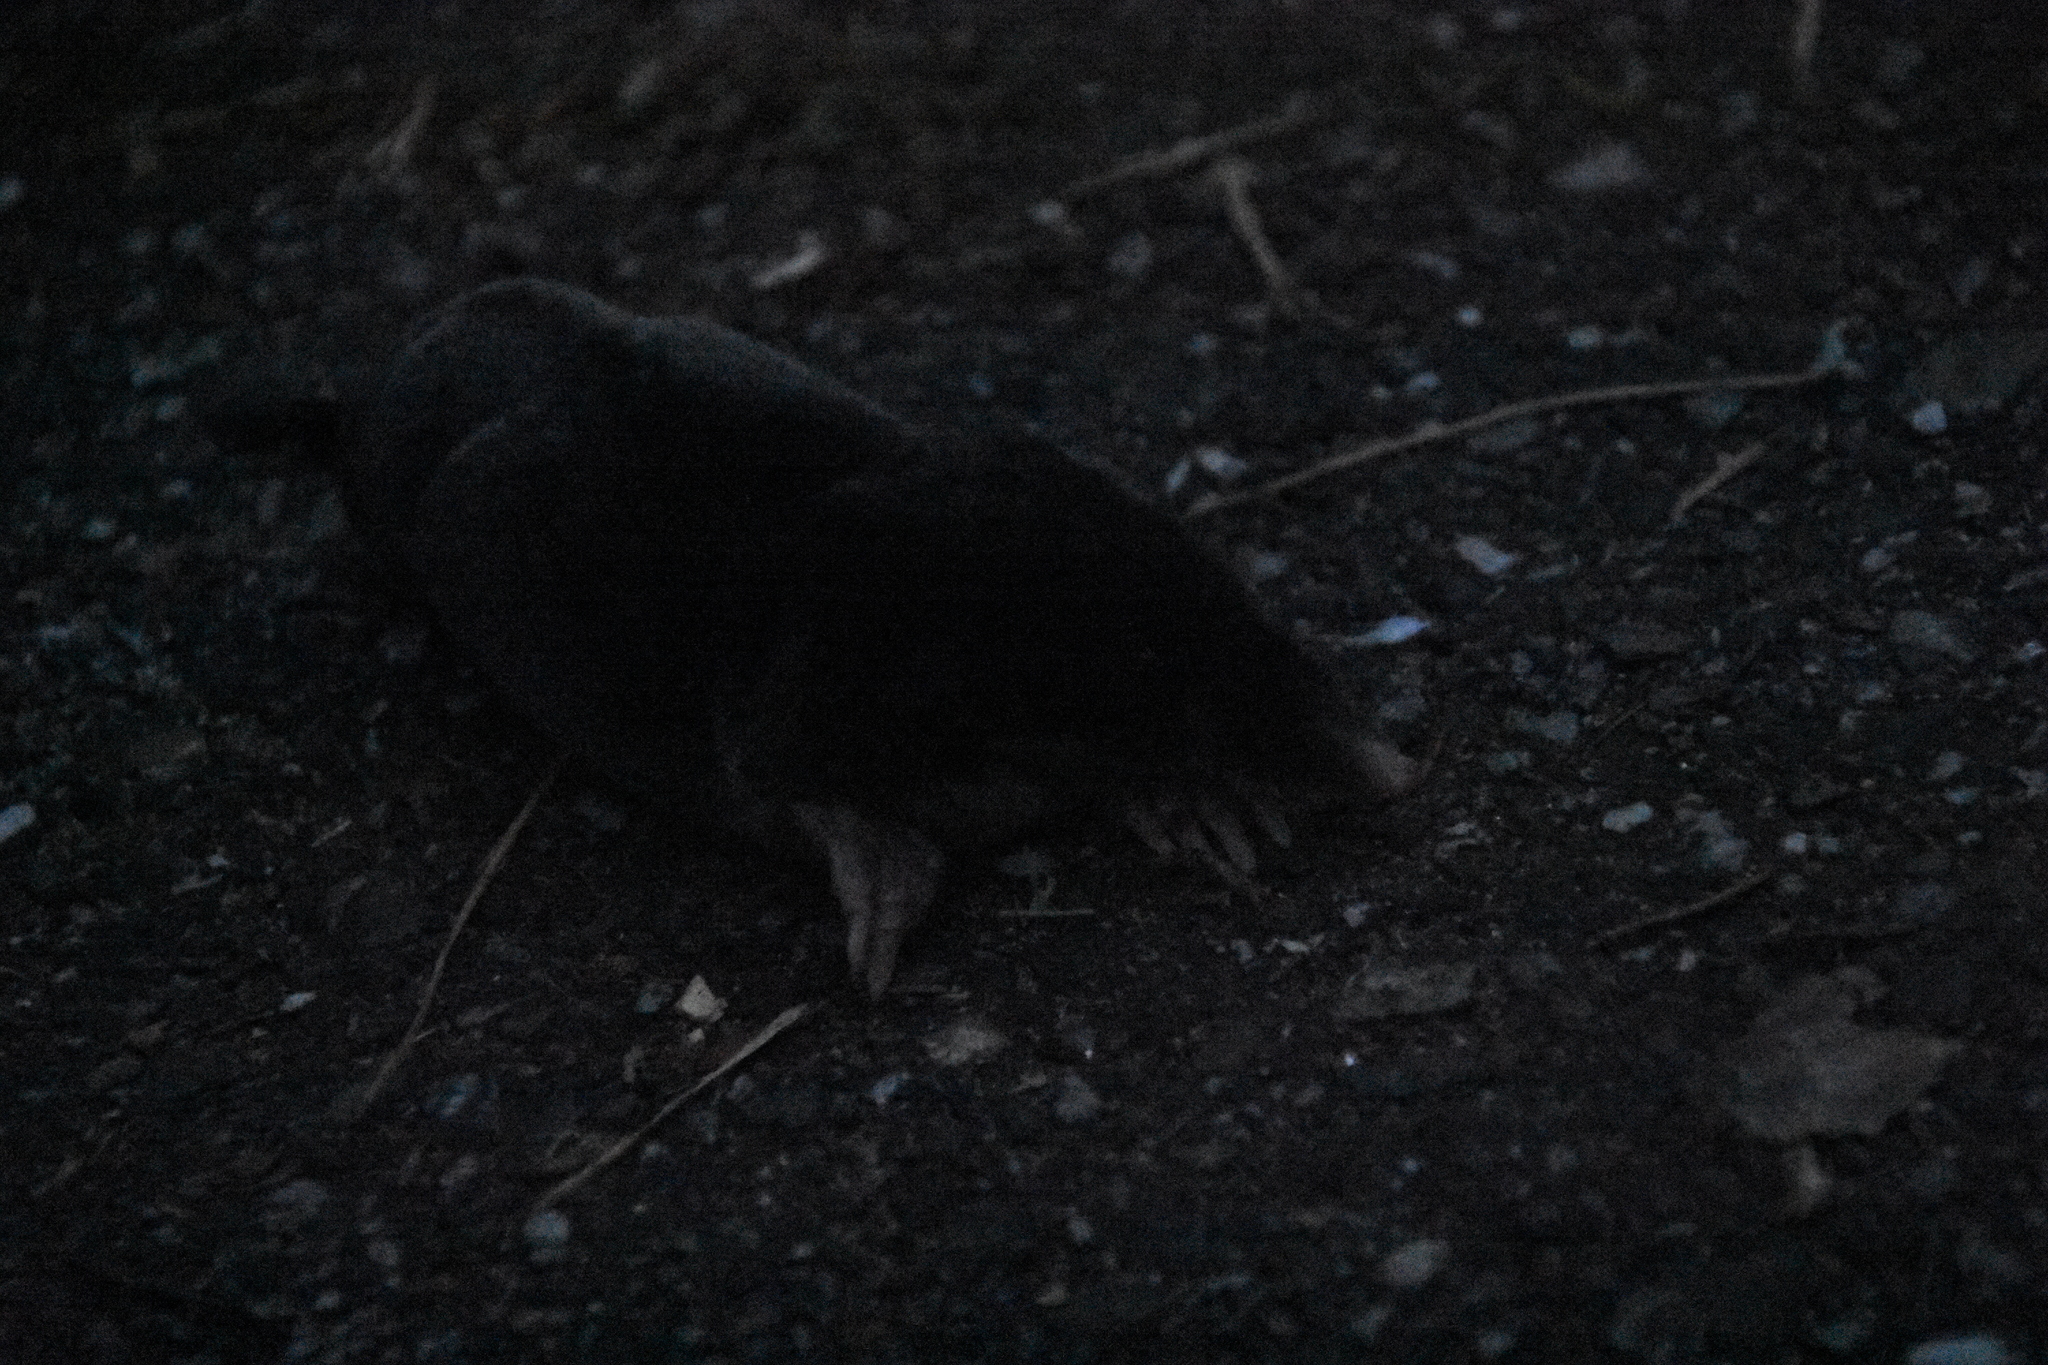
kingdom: Animalia
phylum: Chordata
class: Mammalia
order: Soricomorpha
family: Talpidae
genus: Talpa
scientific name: Talpa europaea
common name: European mole
